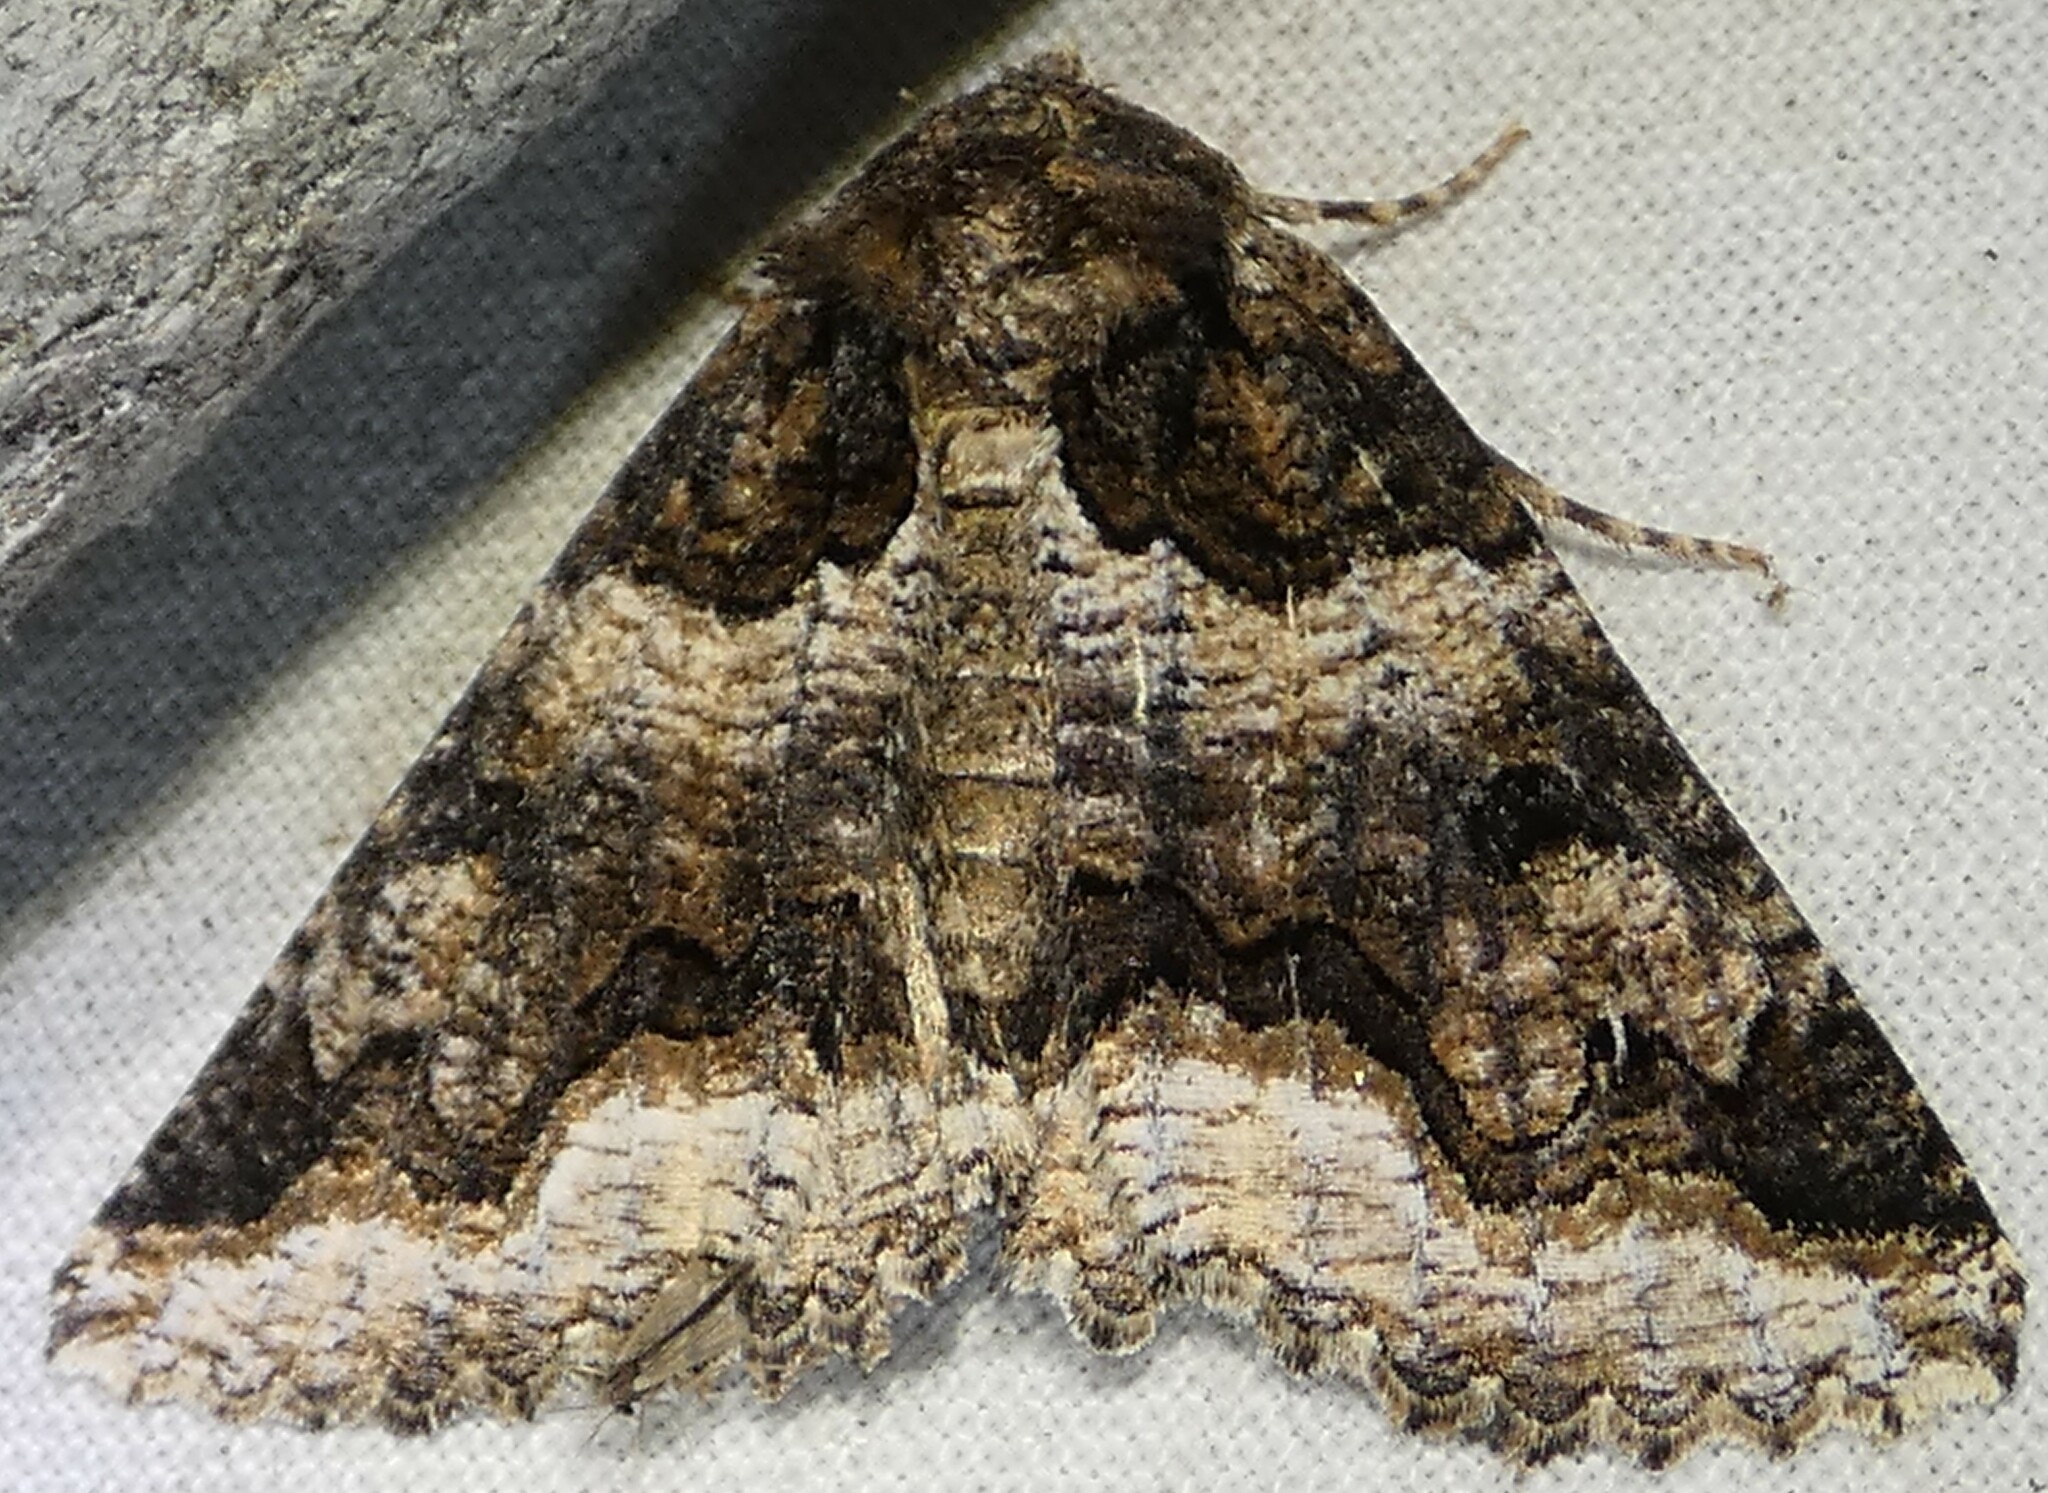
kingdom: Animalia
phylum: Arthropoda
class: Insecta
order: Lepidoptera
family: Erebidae
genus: Zale
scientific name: Zale calycanthata
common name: Double-banded zale
